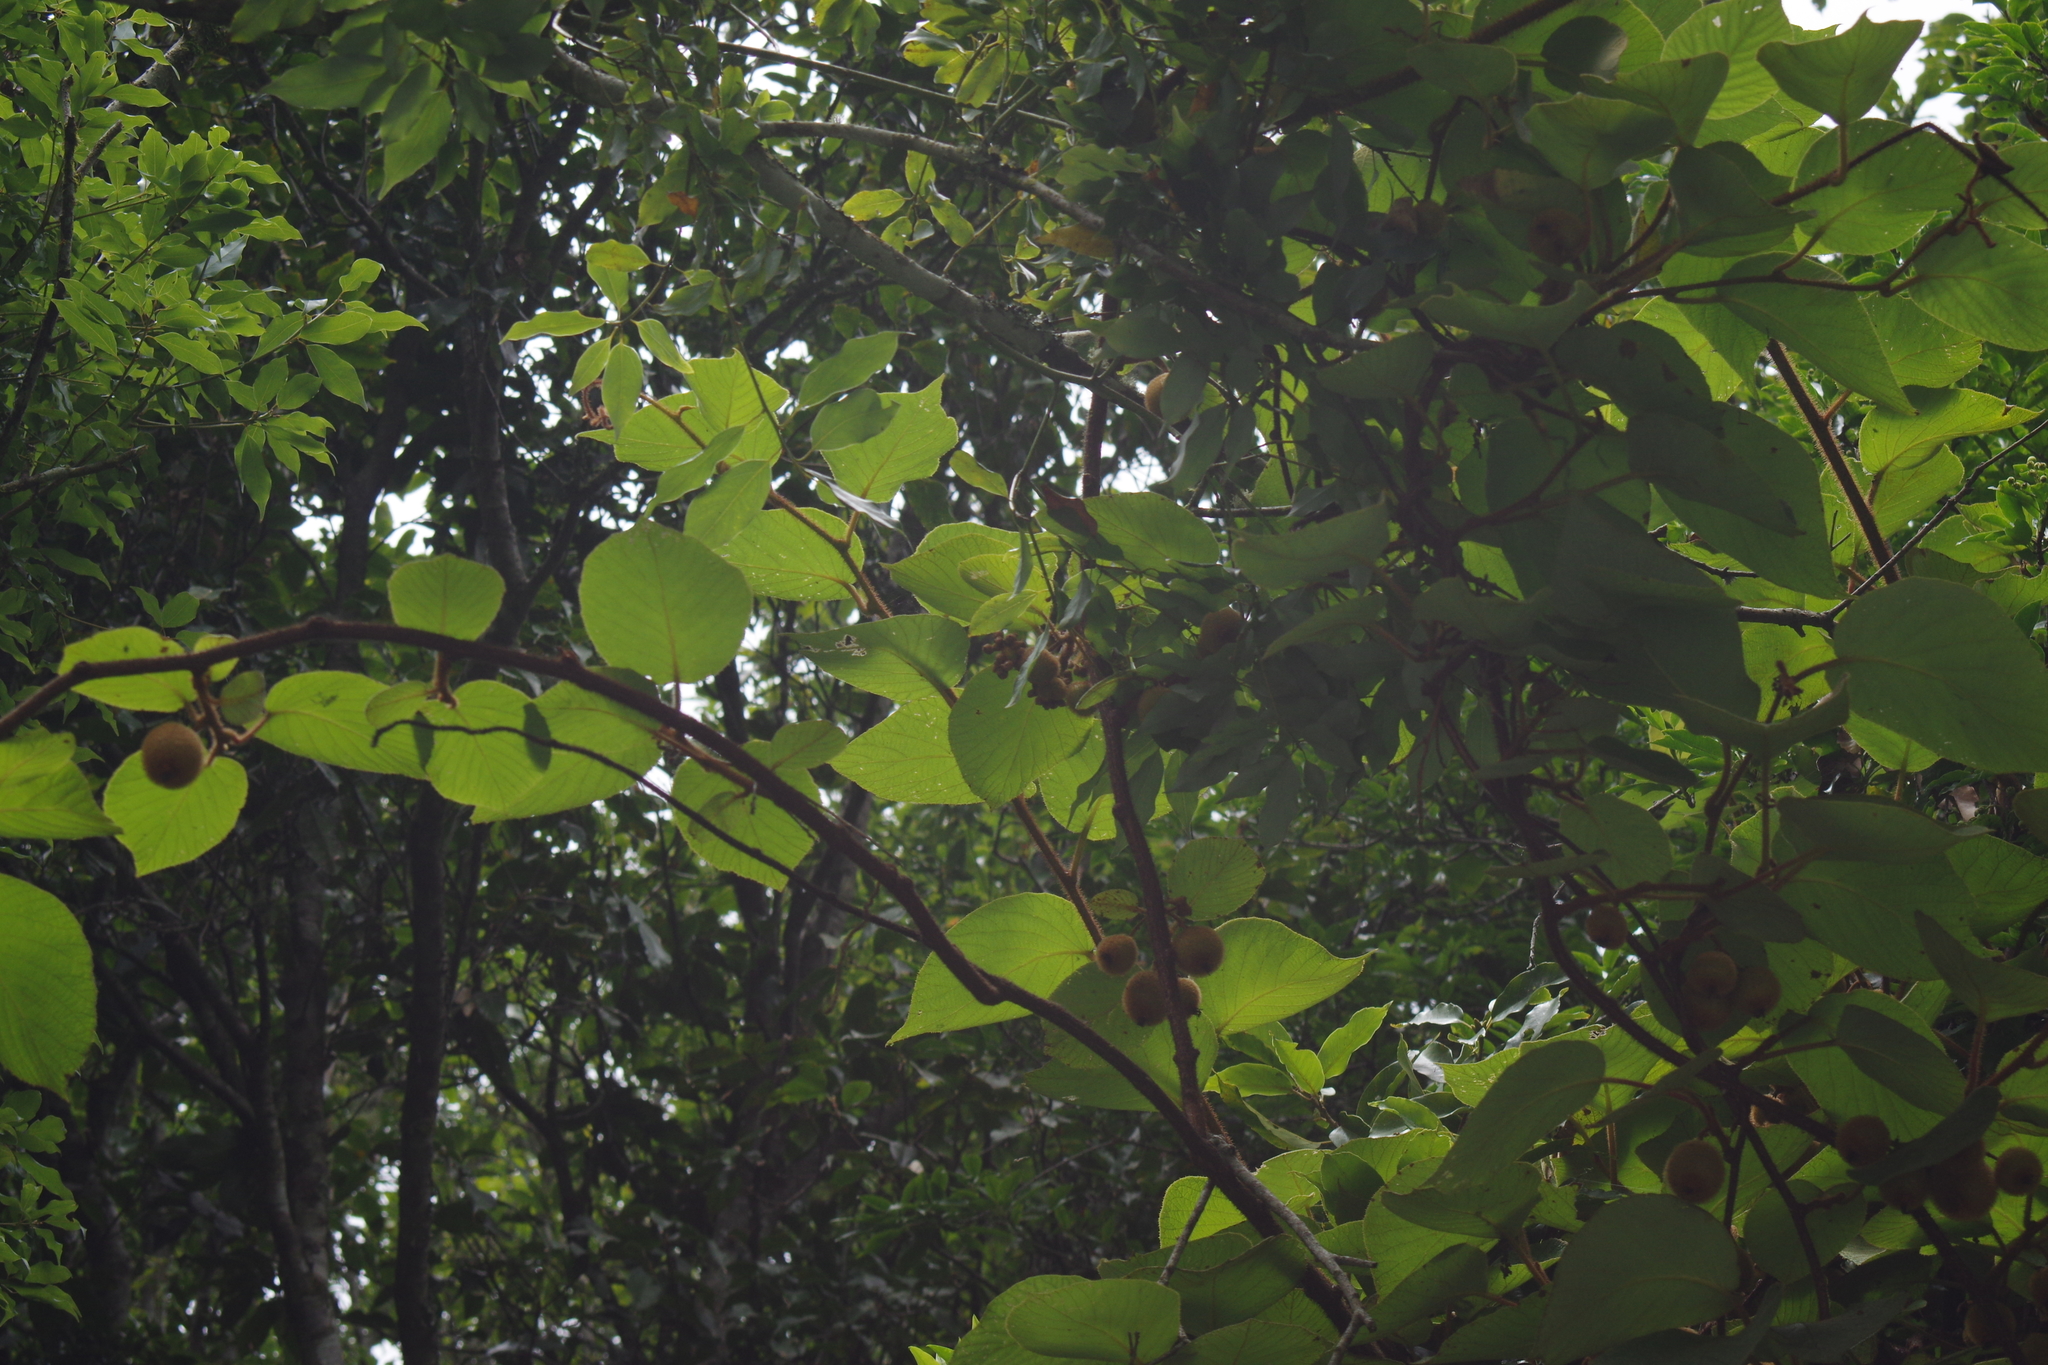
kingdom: Plantae
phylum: Tracheophyta
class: Magnoliopsida
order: Ericales
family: Actinidiaceae
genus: Actinidia
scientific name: Actinidia chinensis
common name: Kiwi
